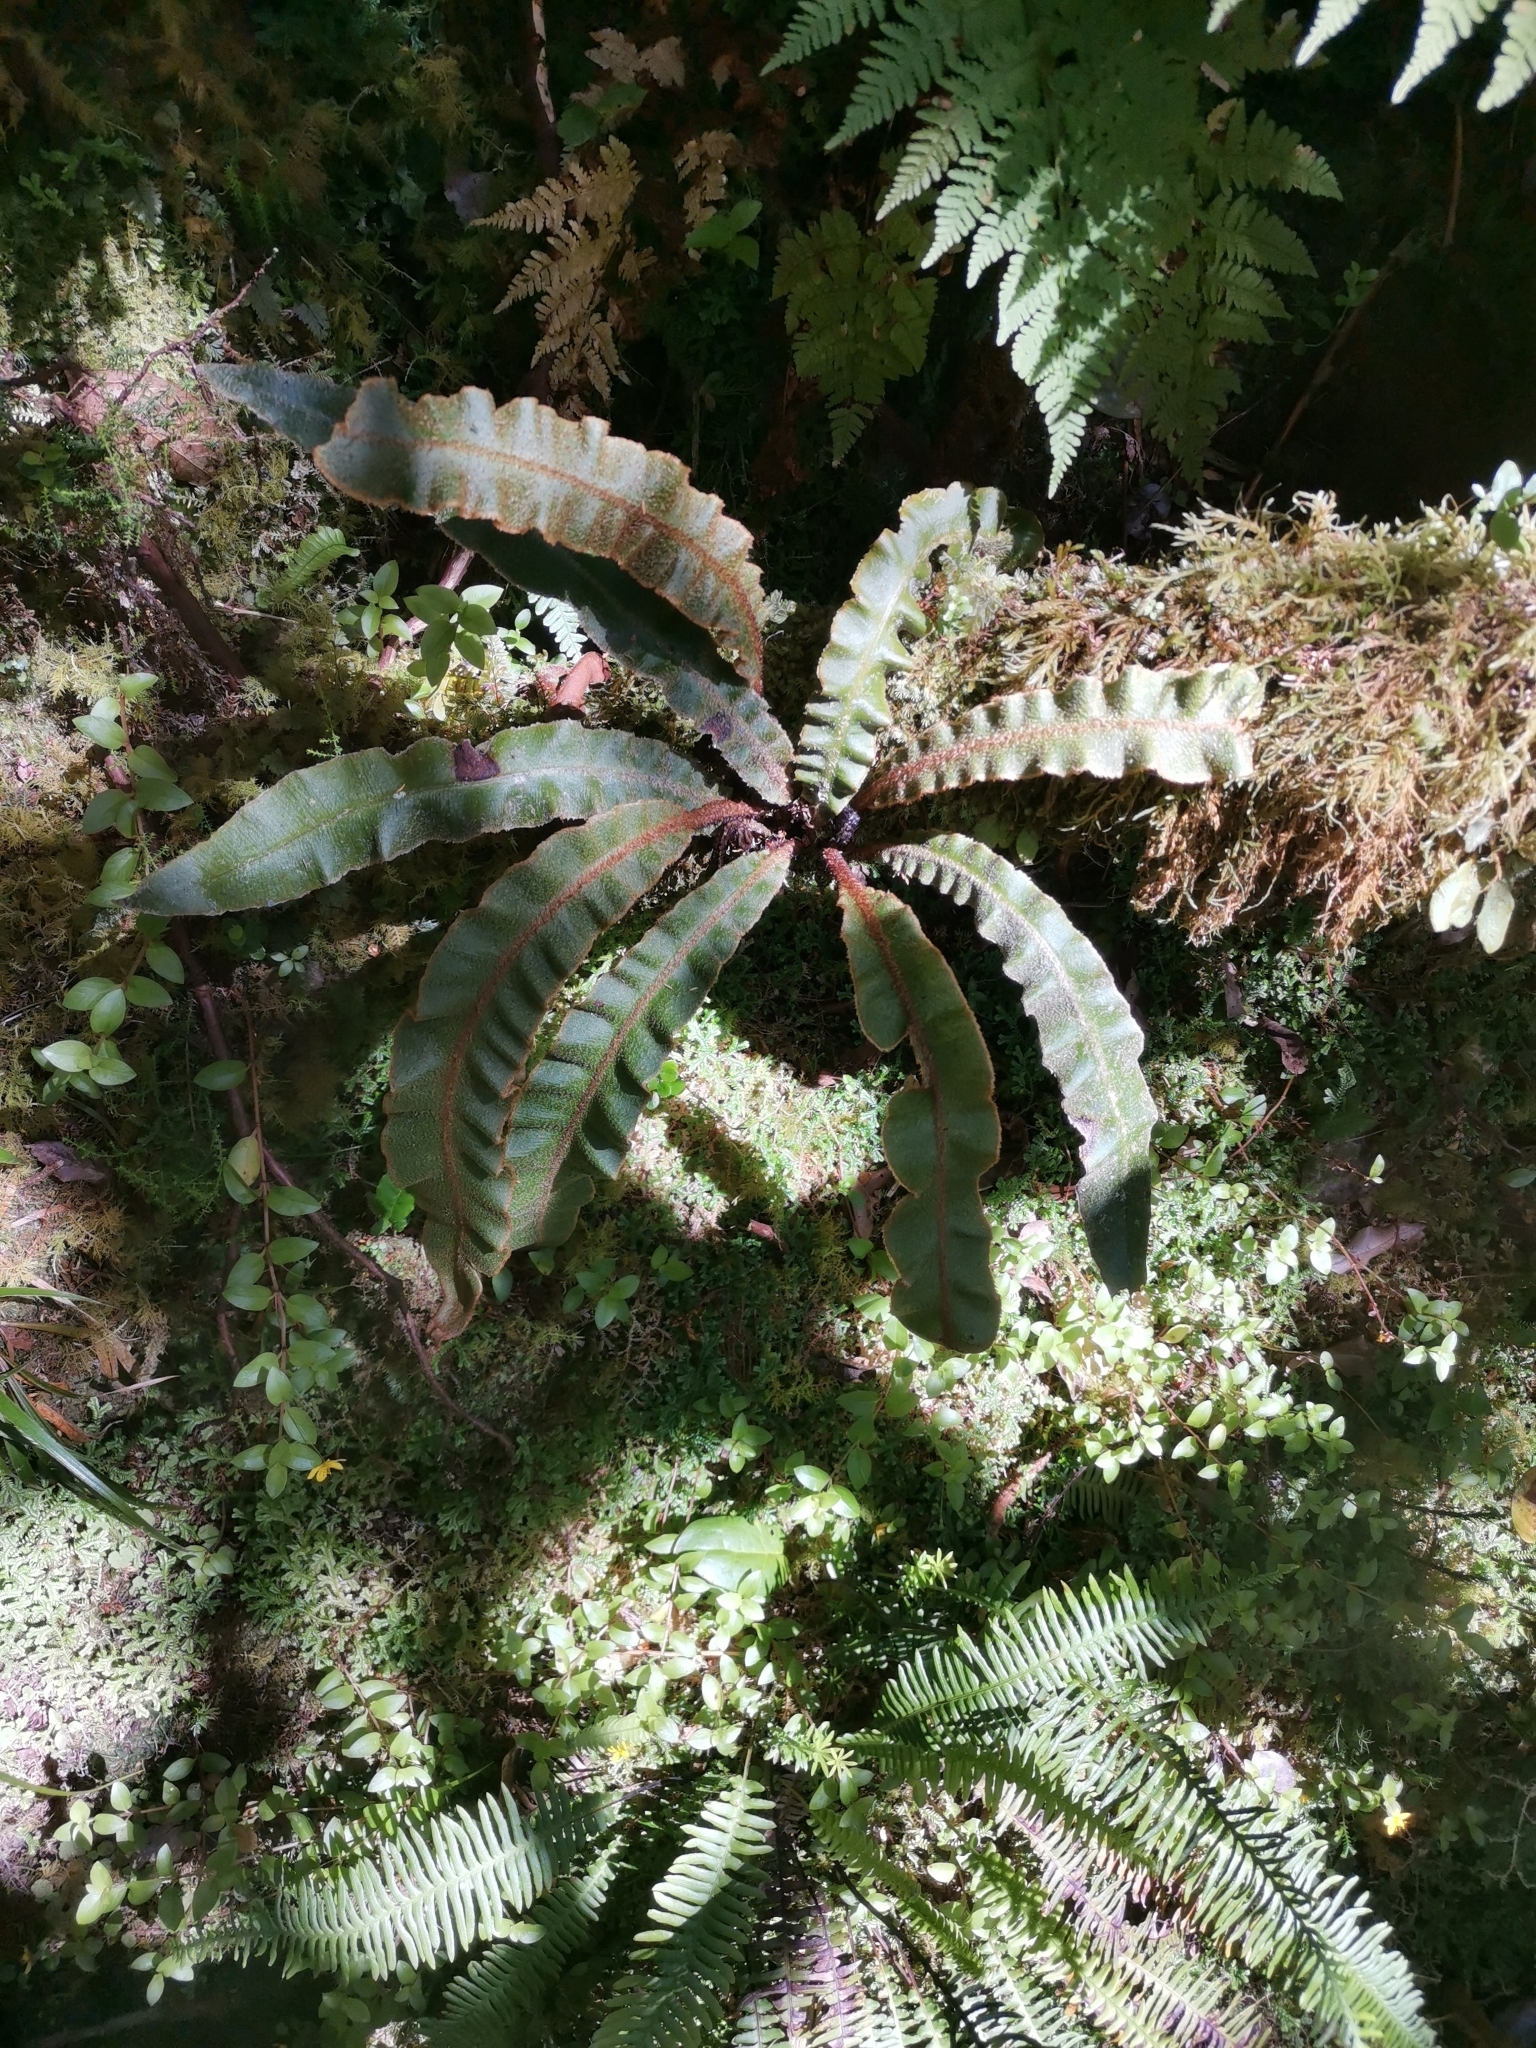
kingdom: Plantae
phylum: Tracheophyta
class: Polypodiopsida
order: Polypodiales
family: Dryopteridaceae
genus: Elaphoglossum
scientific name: Elaphoglossum semicylindricum
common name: Scaly tongue-fern
